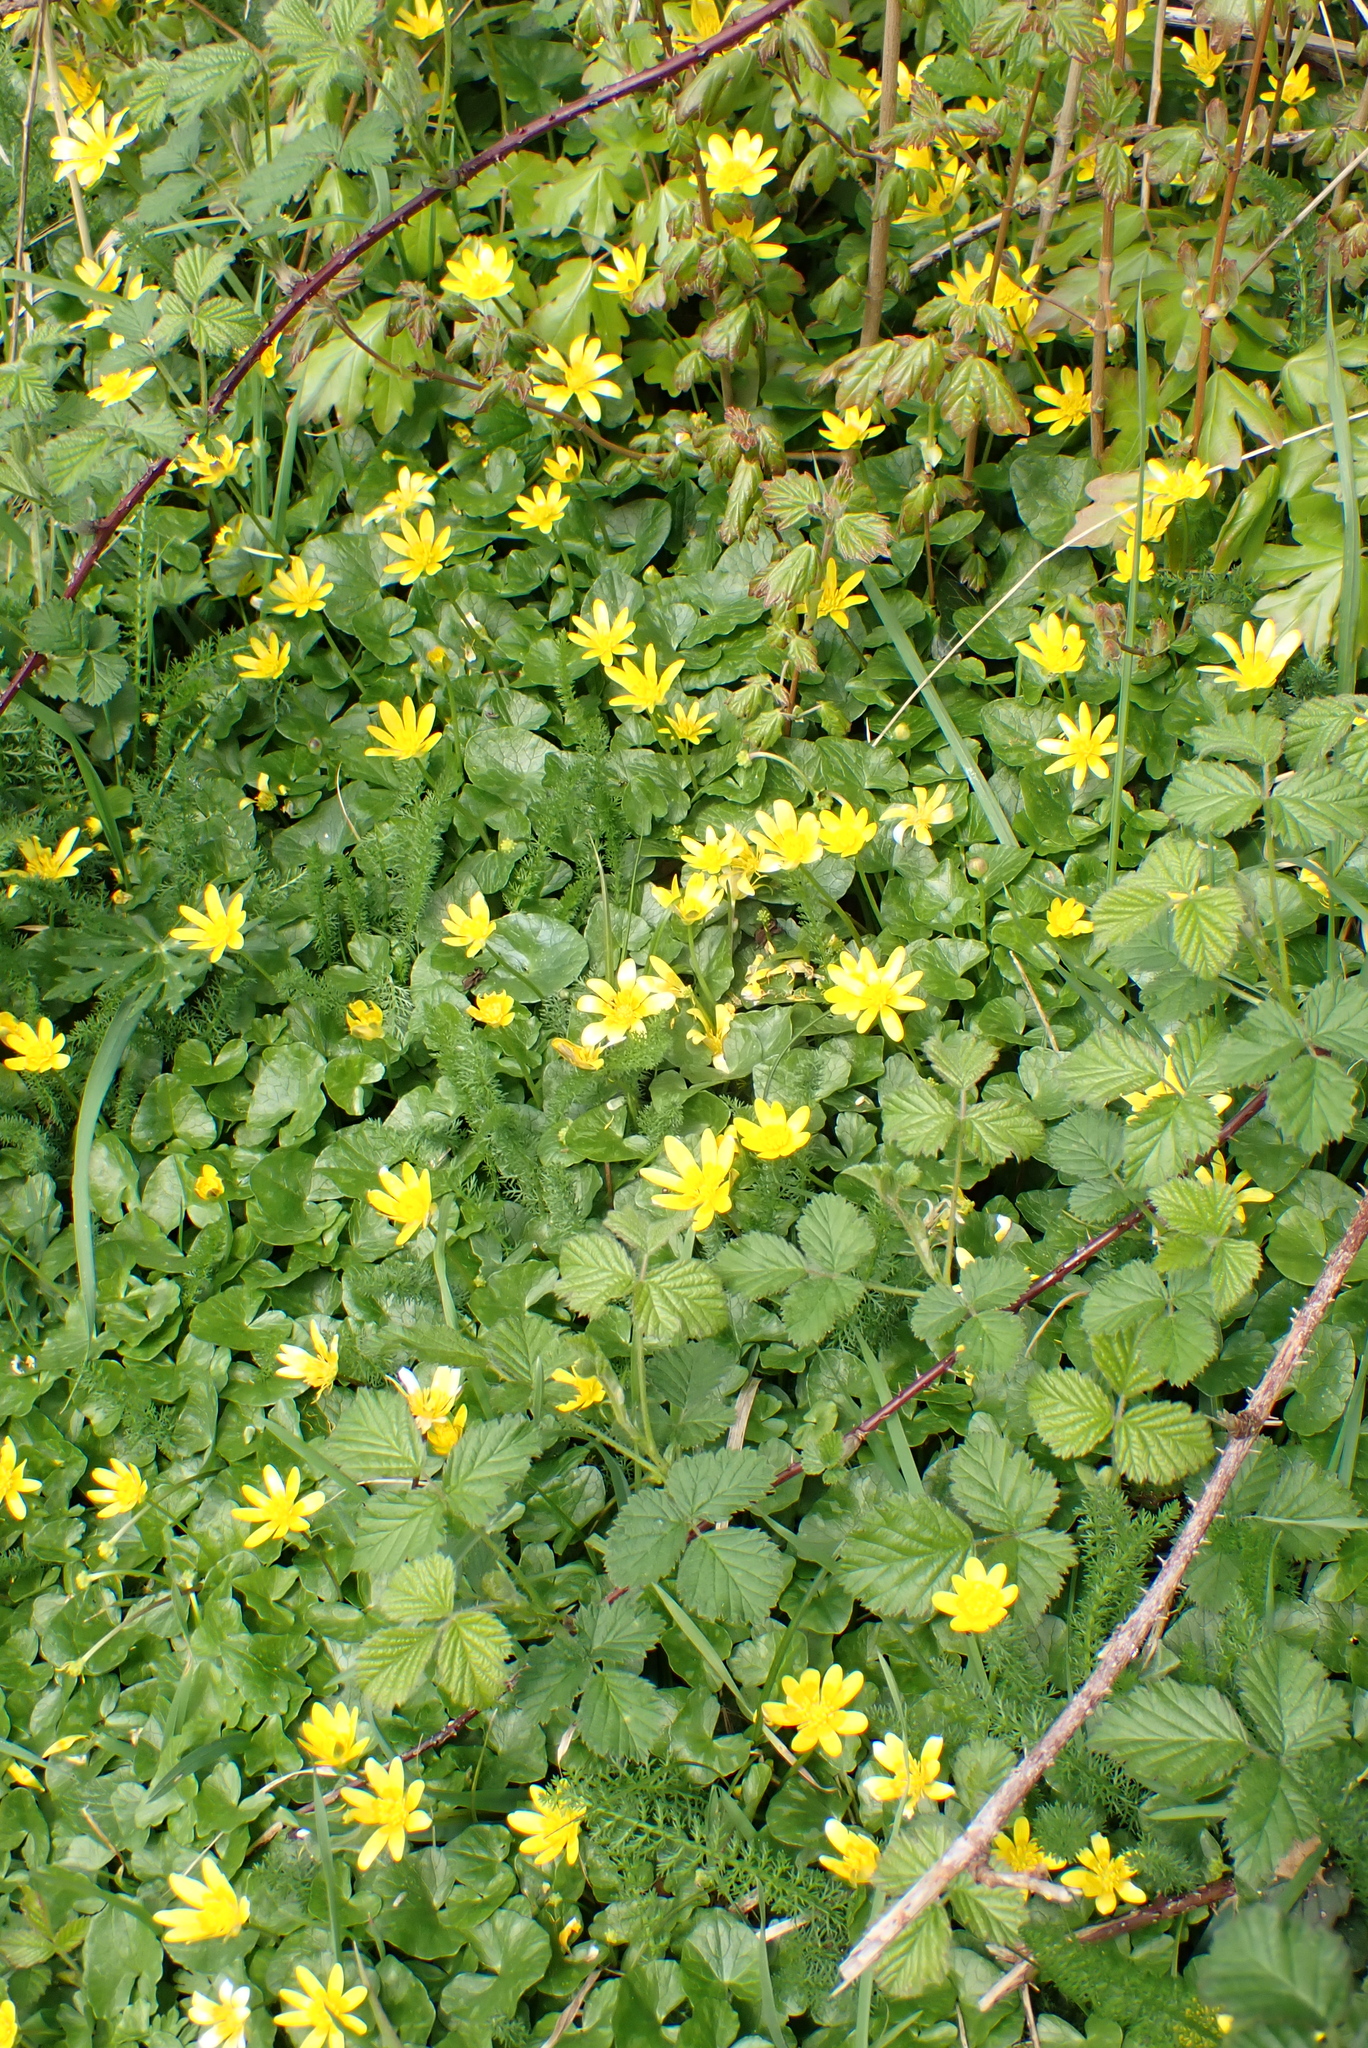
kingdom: Plantae
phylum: Tracheophyta
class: Magnoliopsida
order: Ranunculales
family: Ranunculaceae
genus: Ficaria
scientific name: Ficaria verna
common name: Lesser celandine
